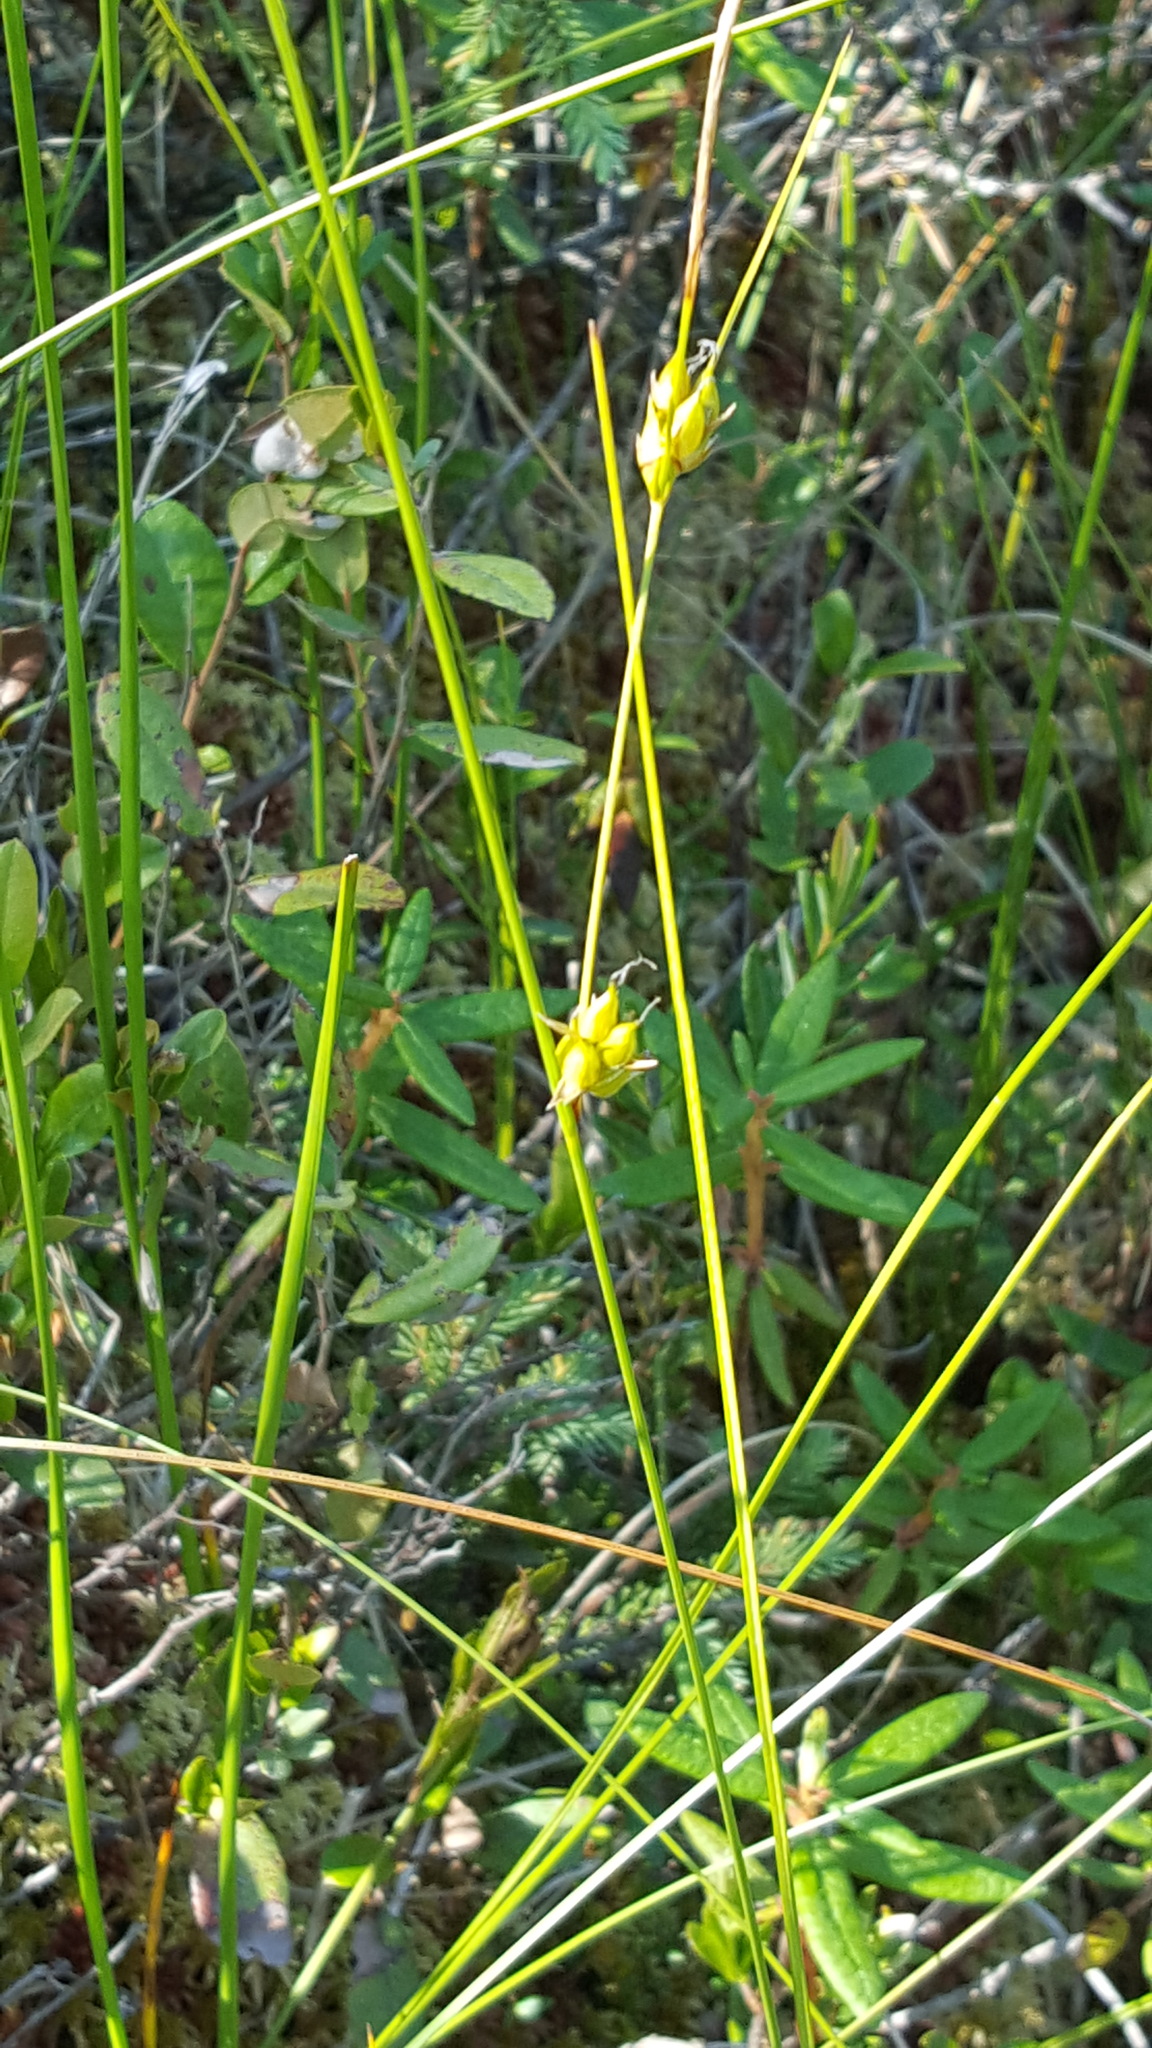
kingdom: Plantae
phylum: Tracheophyta
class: Liliopsida
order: Poales
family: Cyperaceae
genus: Carex
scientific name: Carex oligosperma
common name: Few-seed sedge
